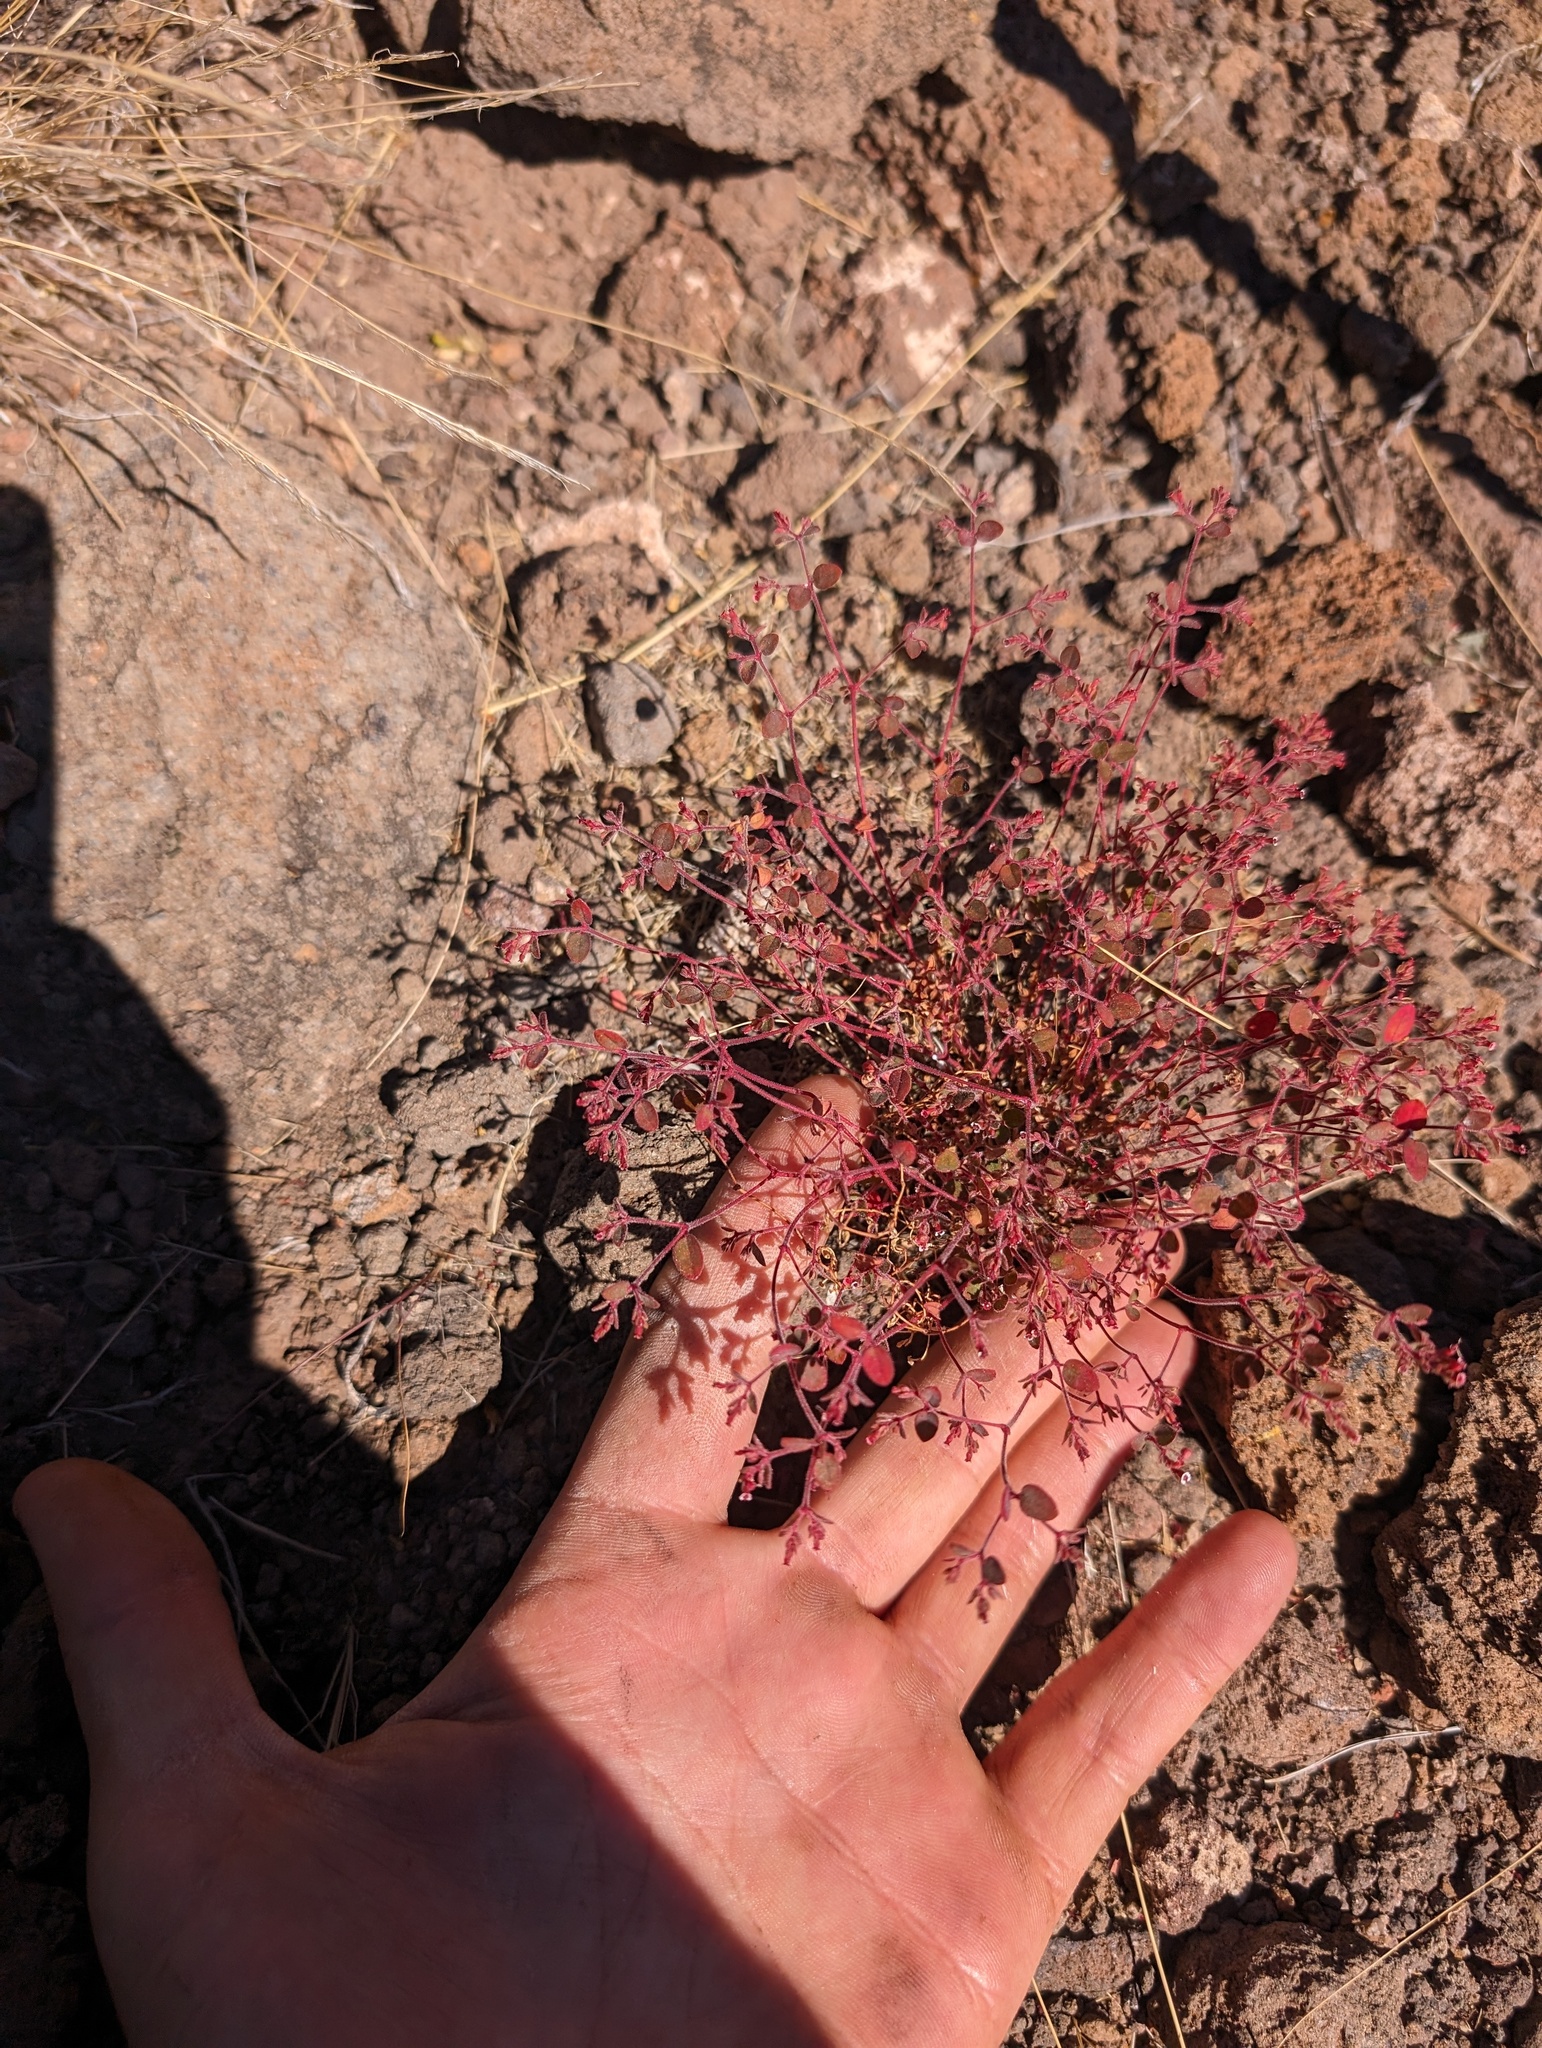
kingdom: Plantae
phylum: Tracheophyta
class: Magnoliopsida
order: Malpighiales
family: Euphorbiaceae
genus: Euphorbia
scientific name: Euphorbia arizonica
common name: Arizona spurge
